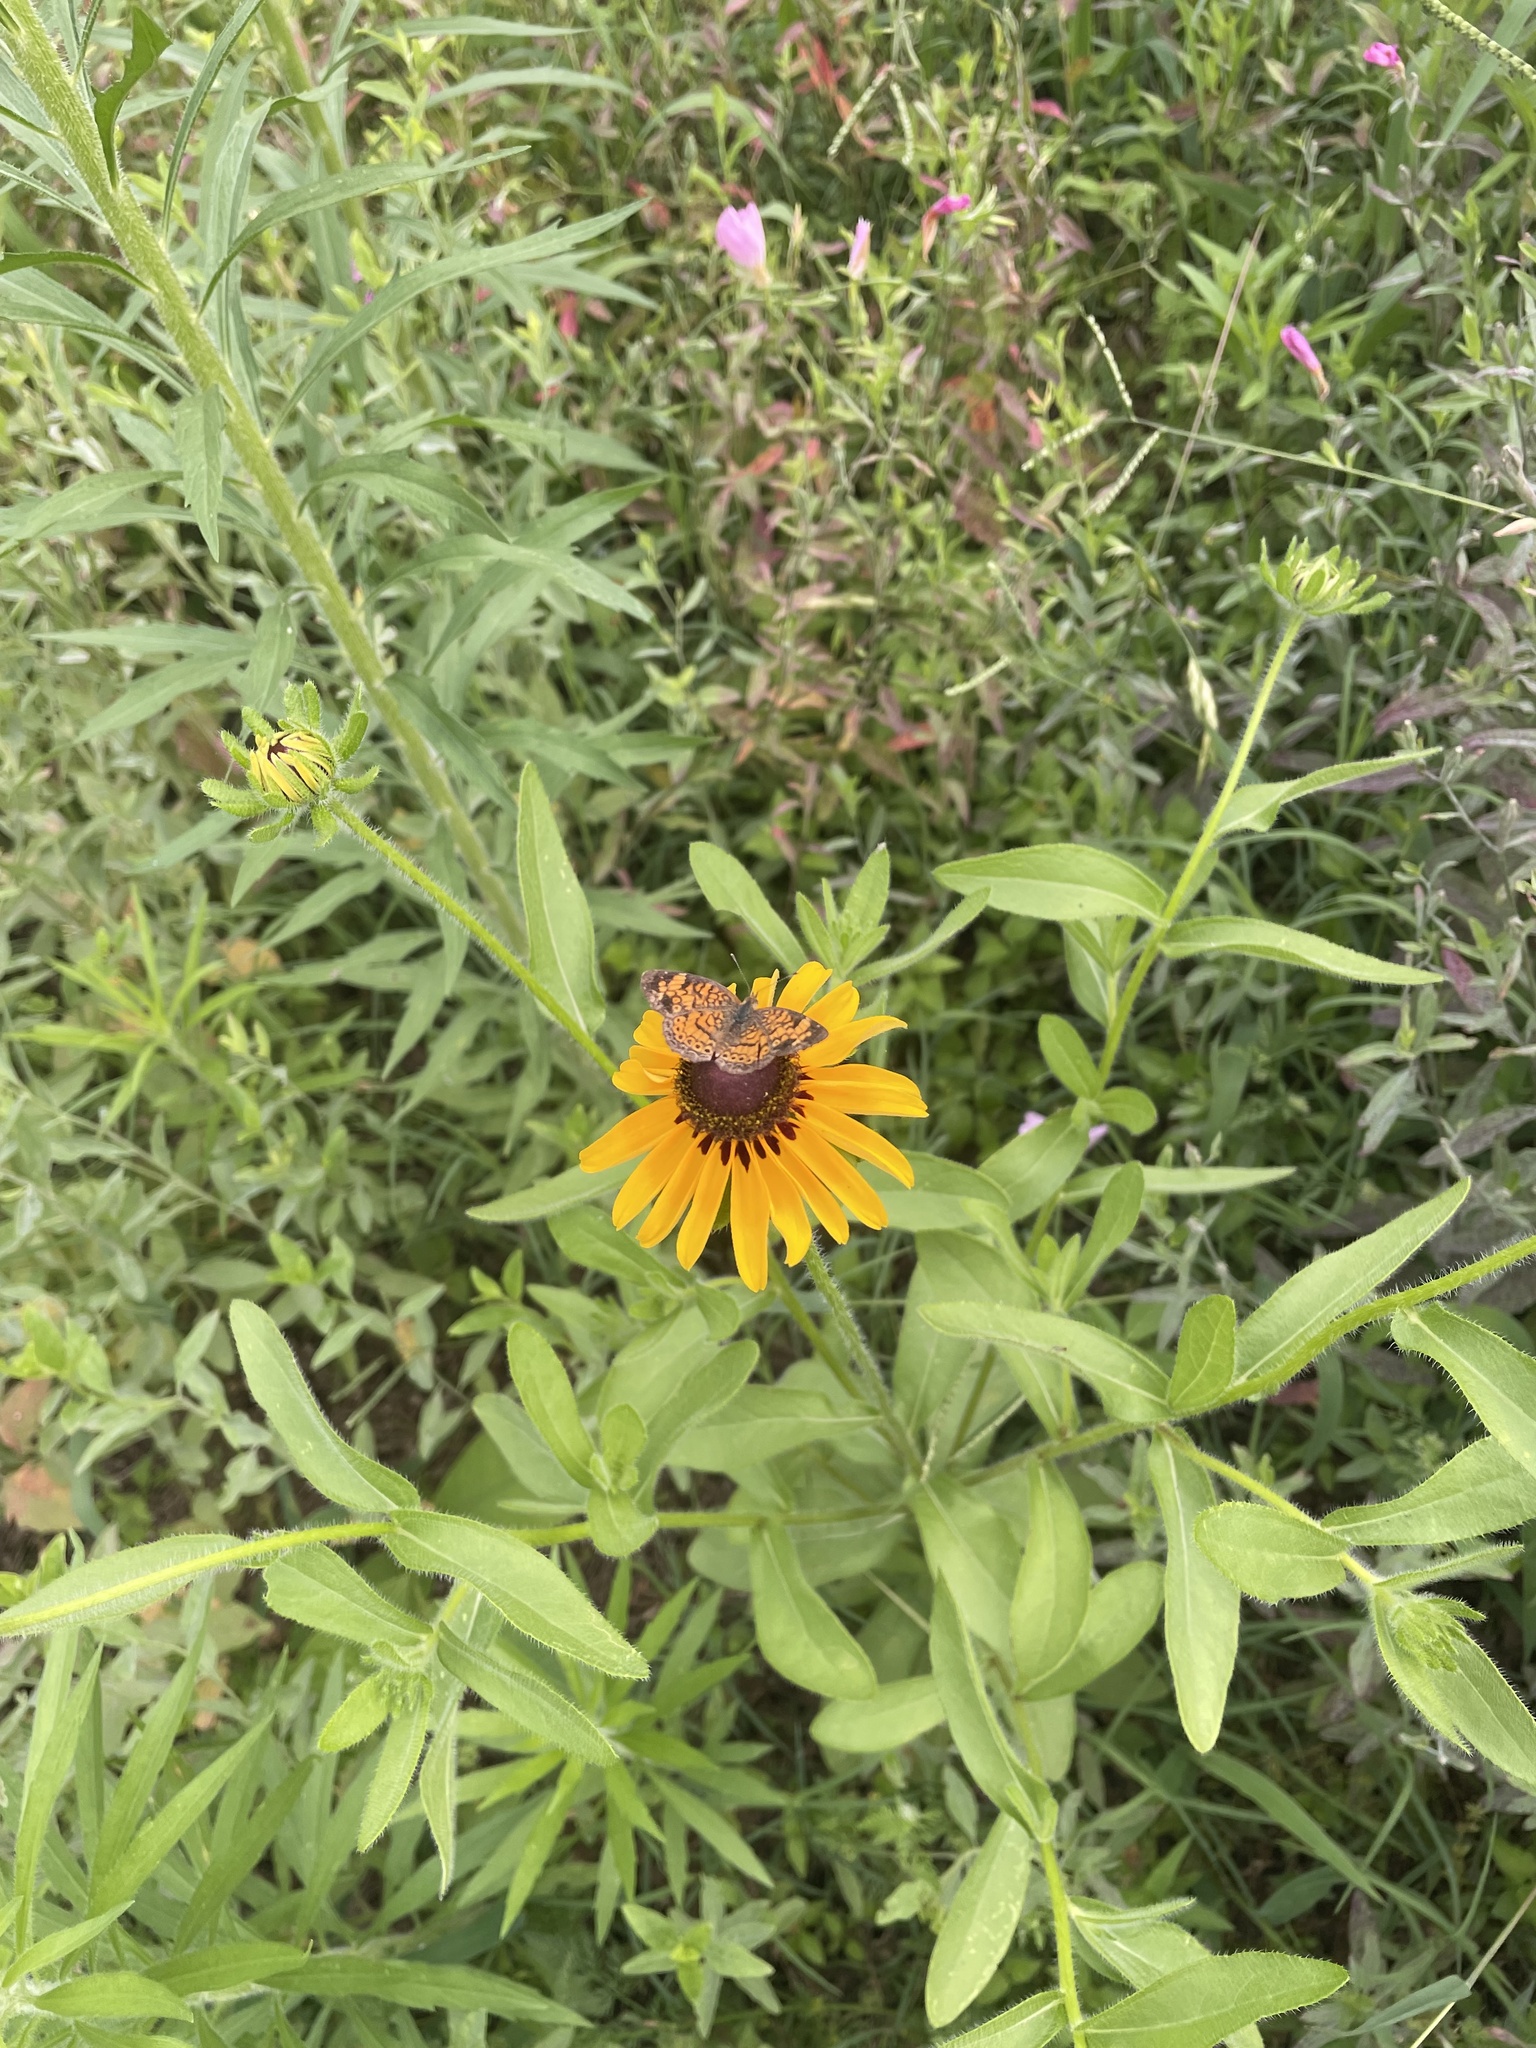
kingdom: Animalia
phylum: Arthropoda
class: Insecta
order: Lepidoptera
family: Nymphalidae
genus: Phyciodes
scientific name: Phyciodes tharos
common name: Pearl crescent
